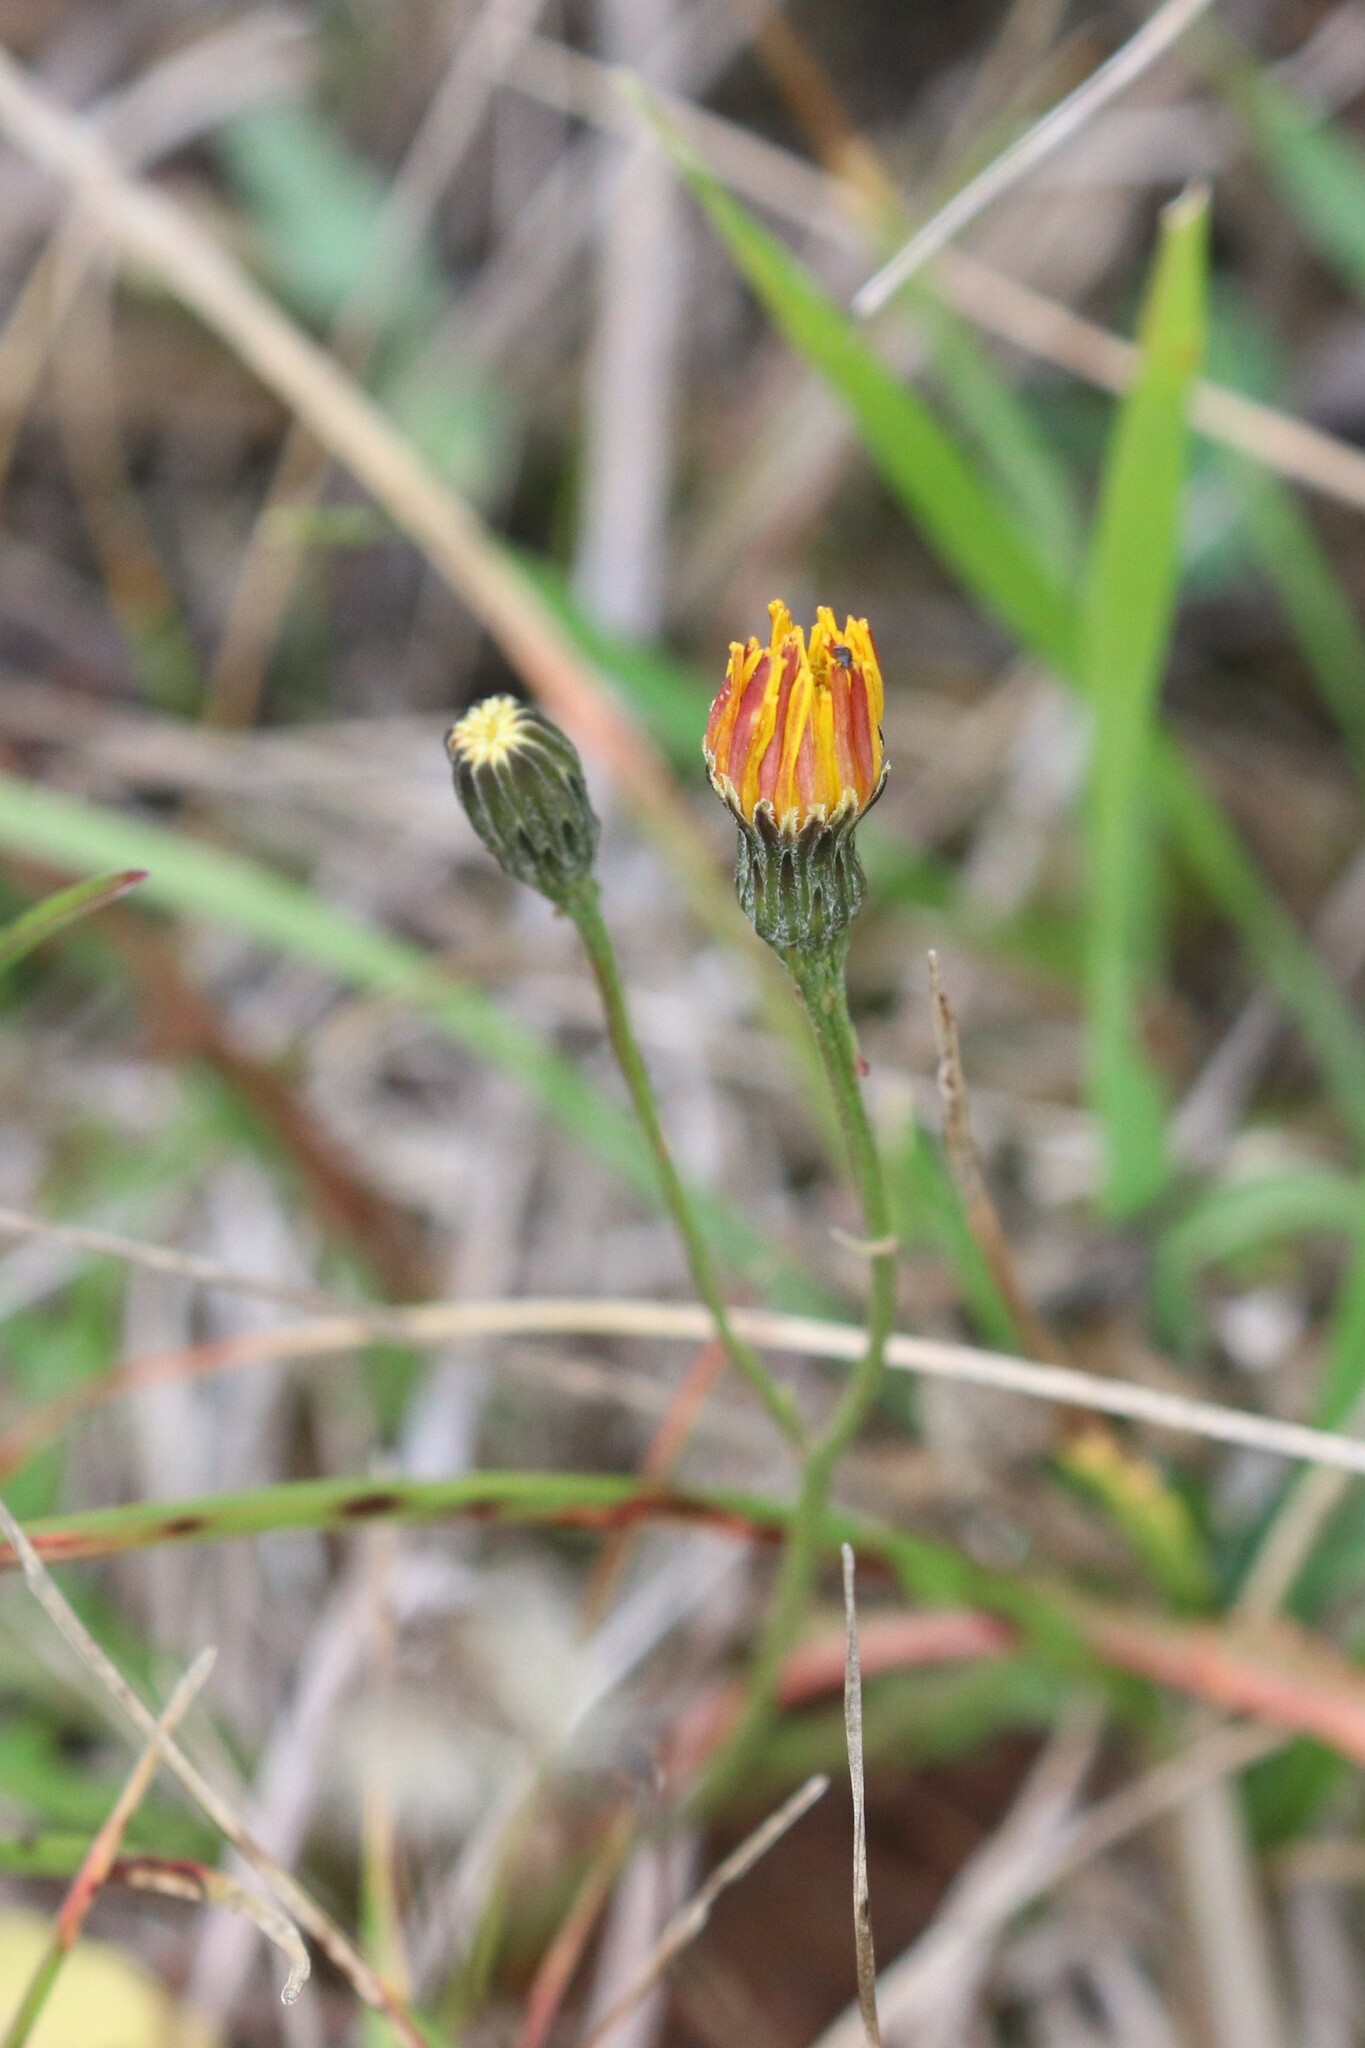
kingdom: Plantae
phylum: Tracheophyta
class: Magnoliopsida
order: Asterales
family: Asteraceae
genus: Scorzoneroides
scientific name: Scorzoneroides autumnalis
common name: Autumn hawkbit
